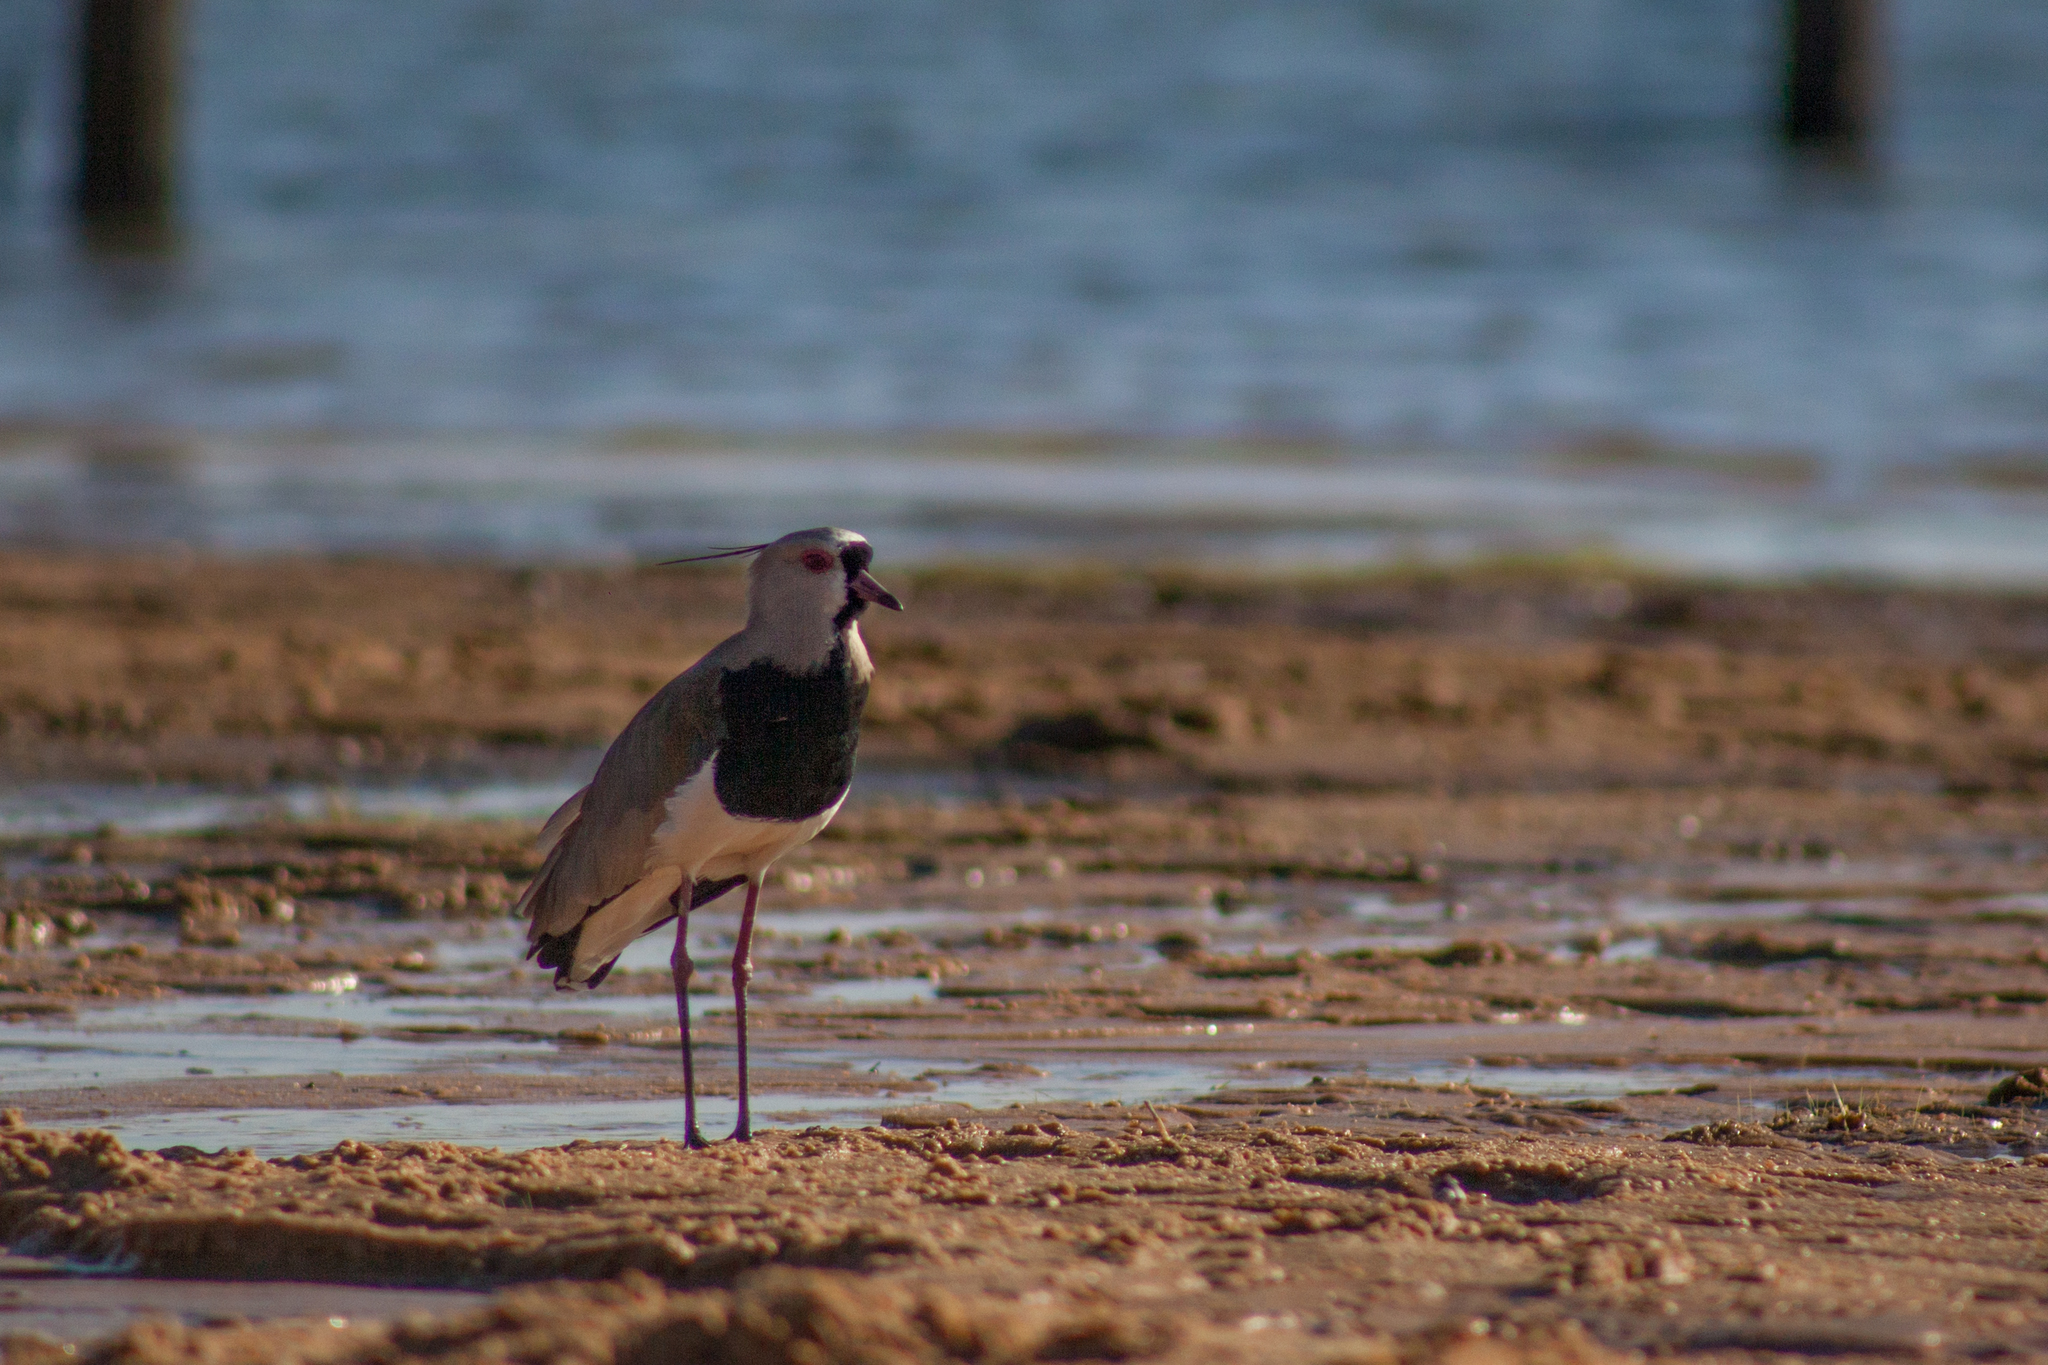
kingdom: Animalia
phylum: Chordata
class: Aves
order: Charadriiformes
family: Charadriidae
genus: Vanellus
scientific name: Vanellus chilensis
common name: Southern lapwing
